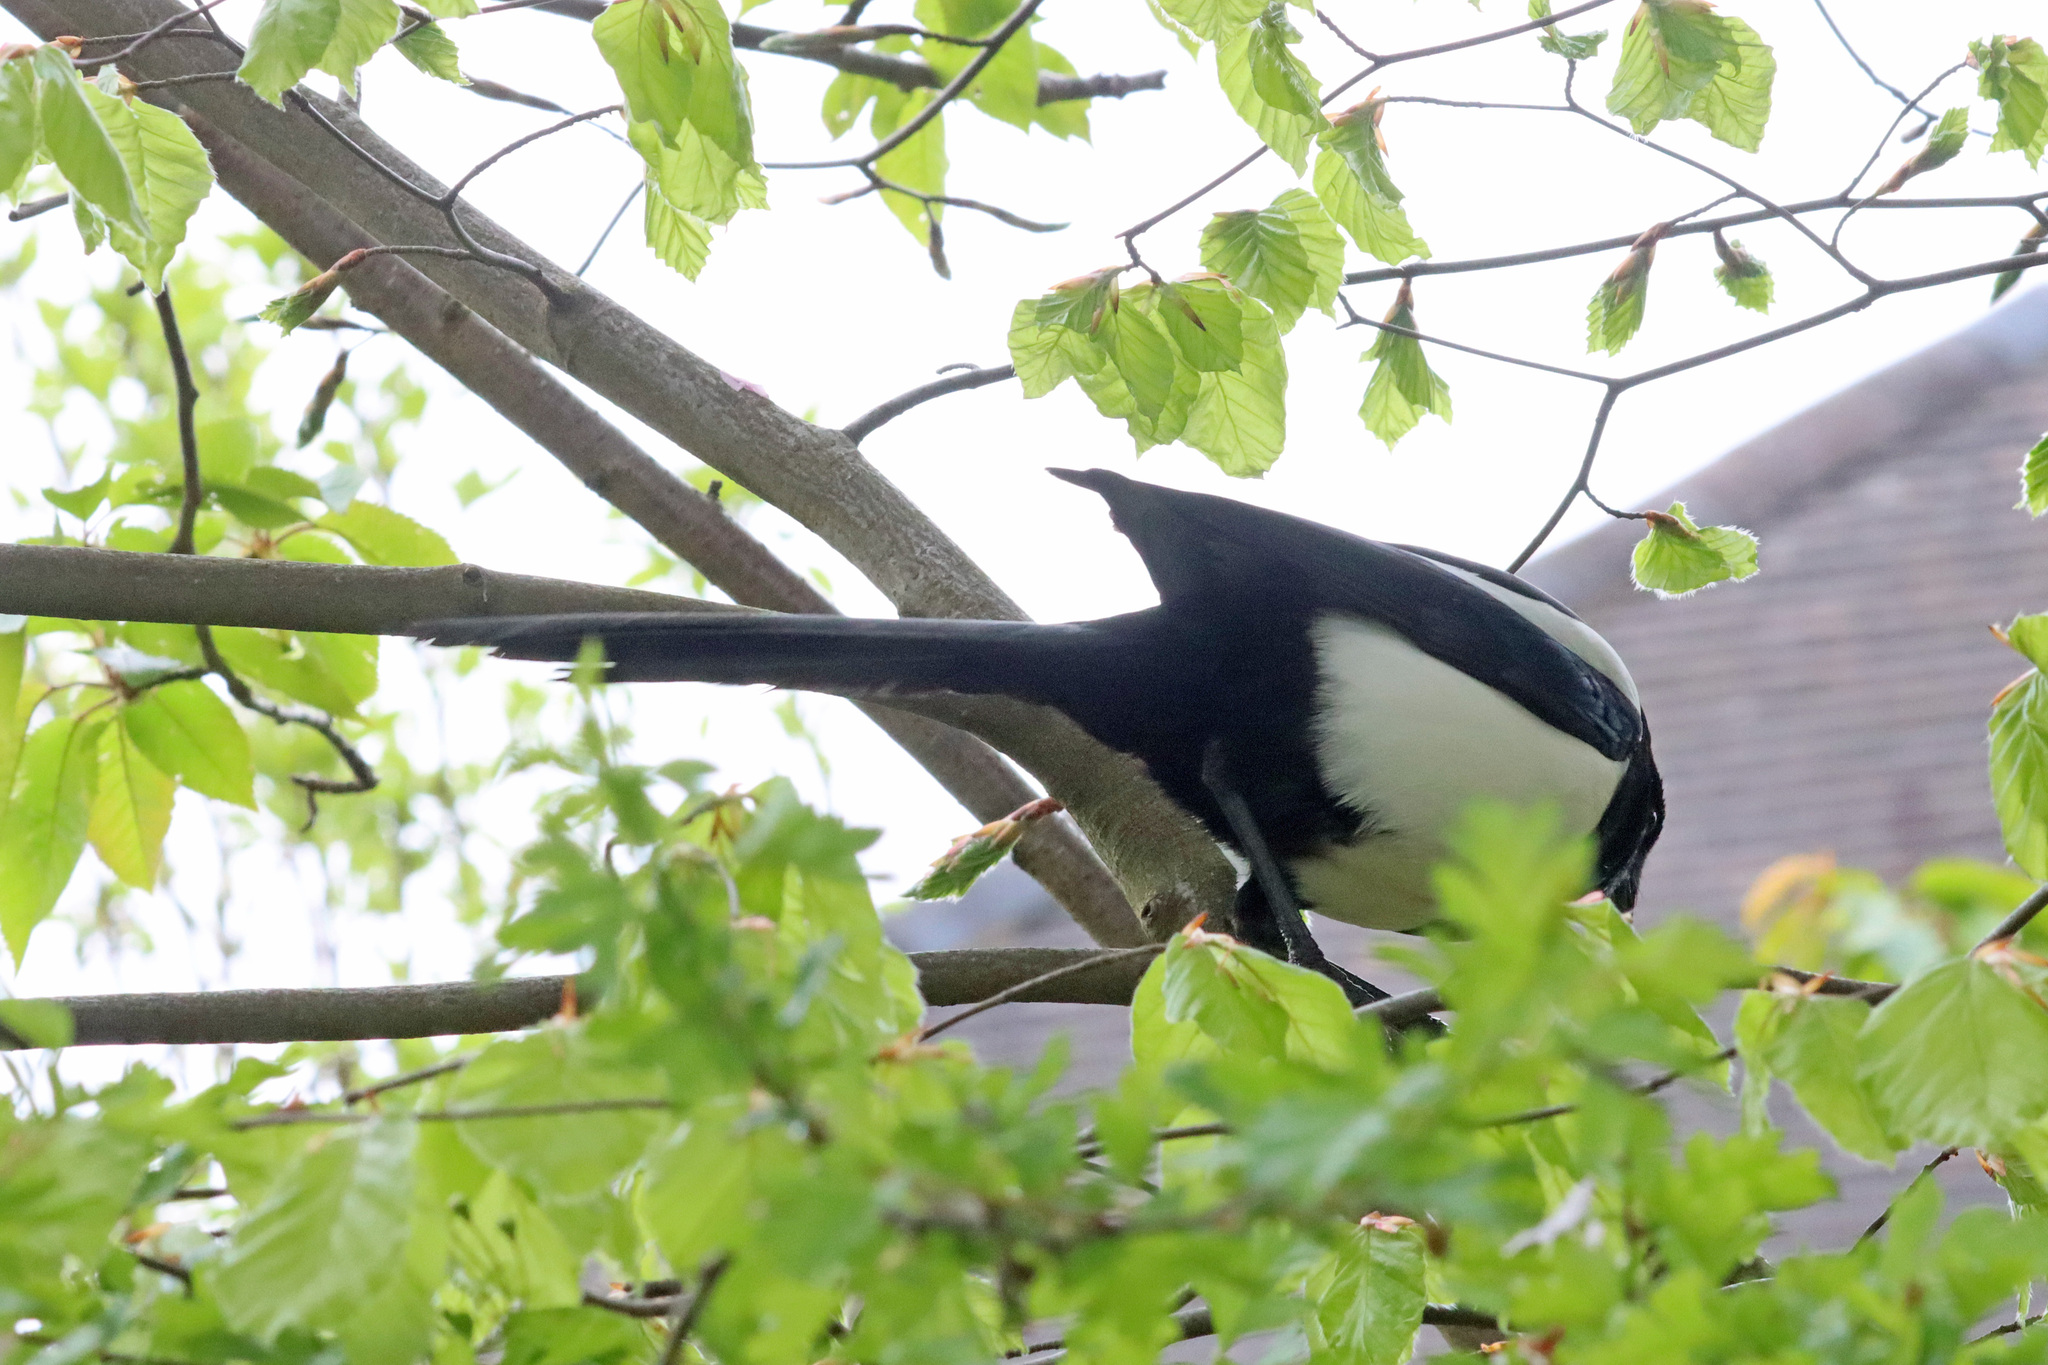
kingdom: Animalia
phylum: Chordata
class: Aves
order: Passeriformes
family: Corvidae
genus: Pica
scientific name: Pica pica
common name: Eurasian magpie
